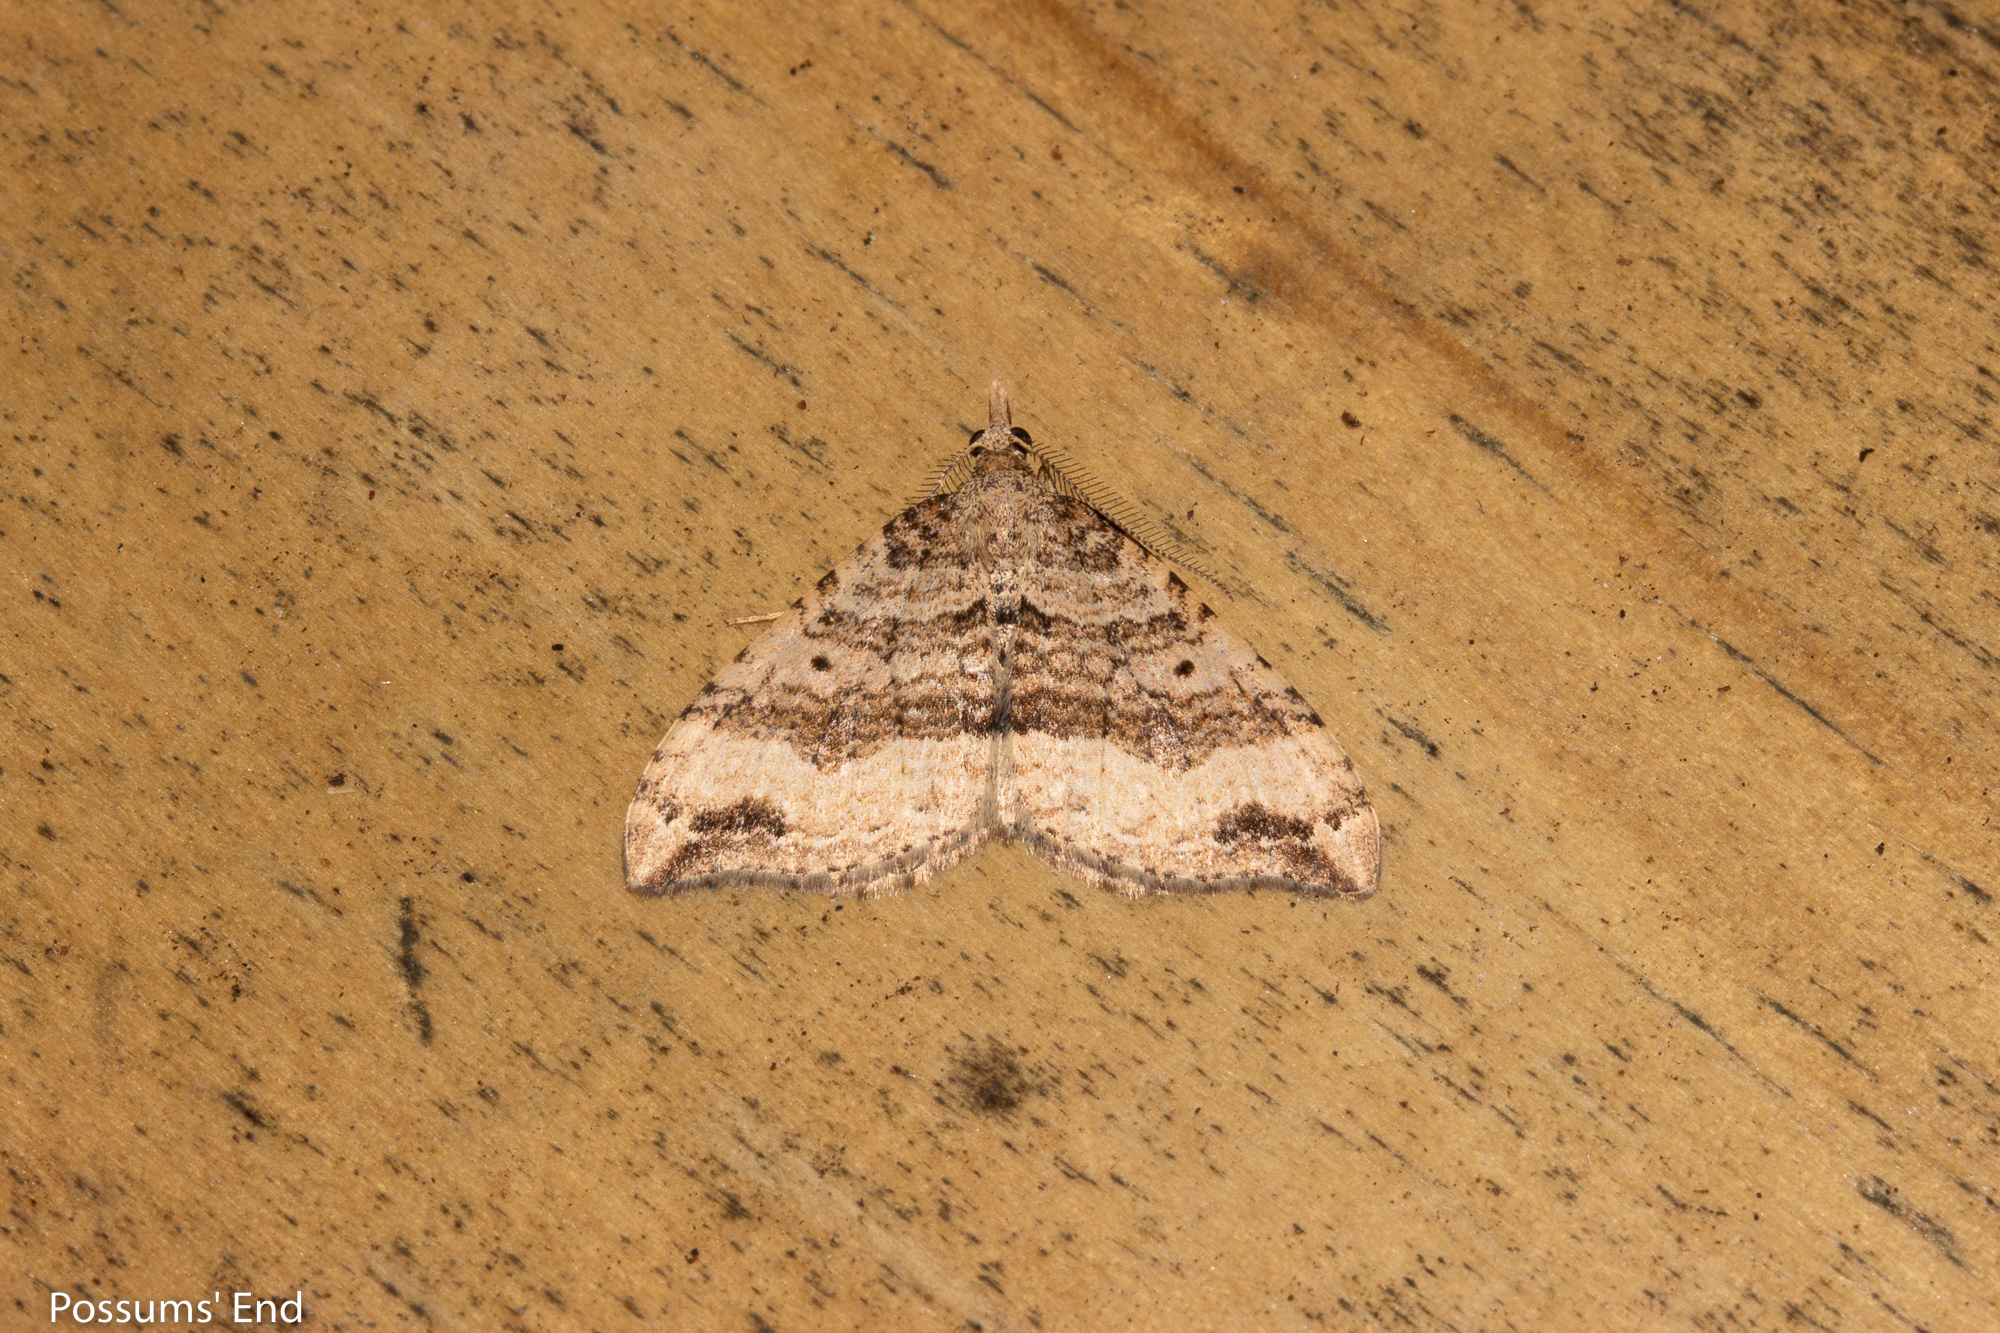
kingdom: Animalia
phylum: Arthropoda
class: Insecta
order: Lepidoptera
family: Geometridae
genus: Homodotis
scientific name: Homodotis falcata
